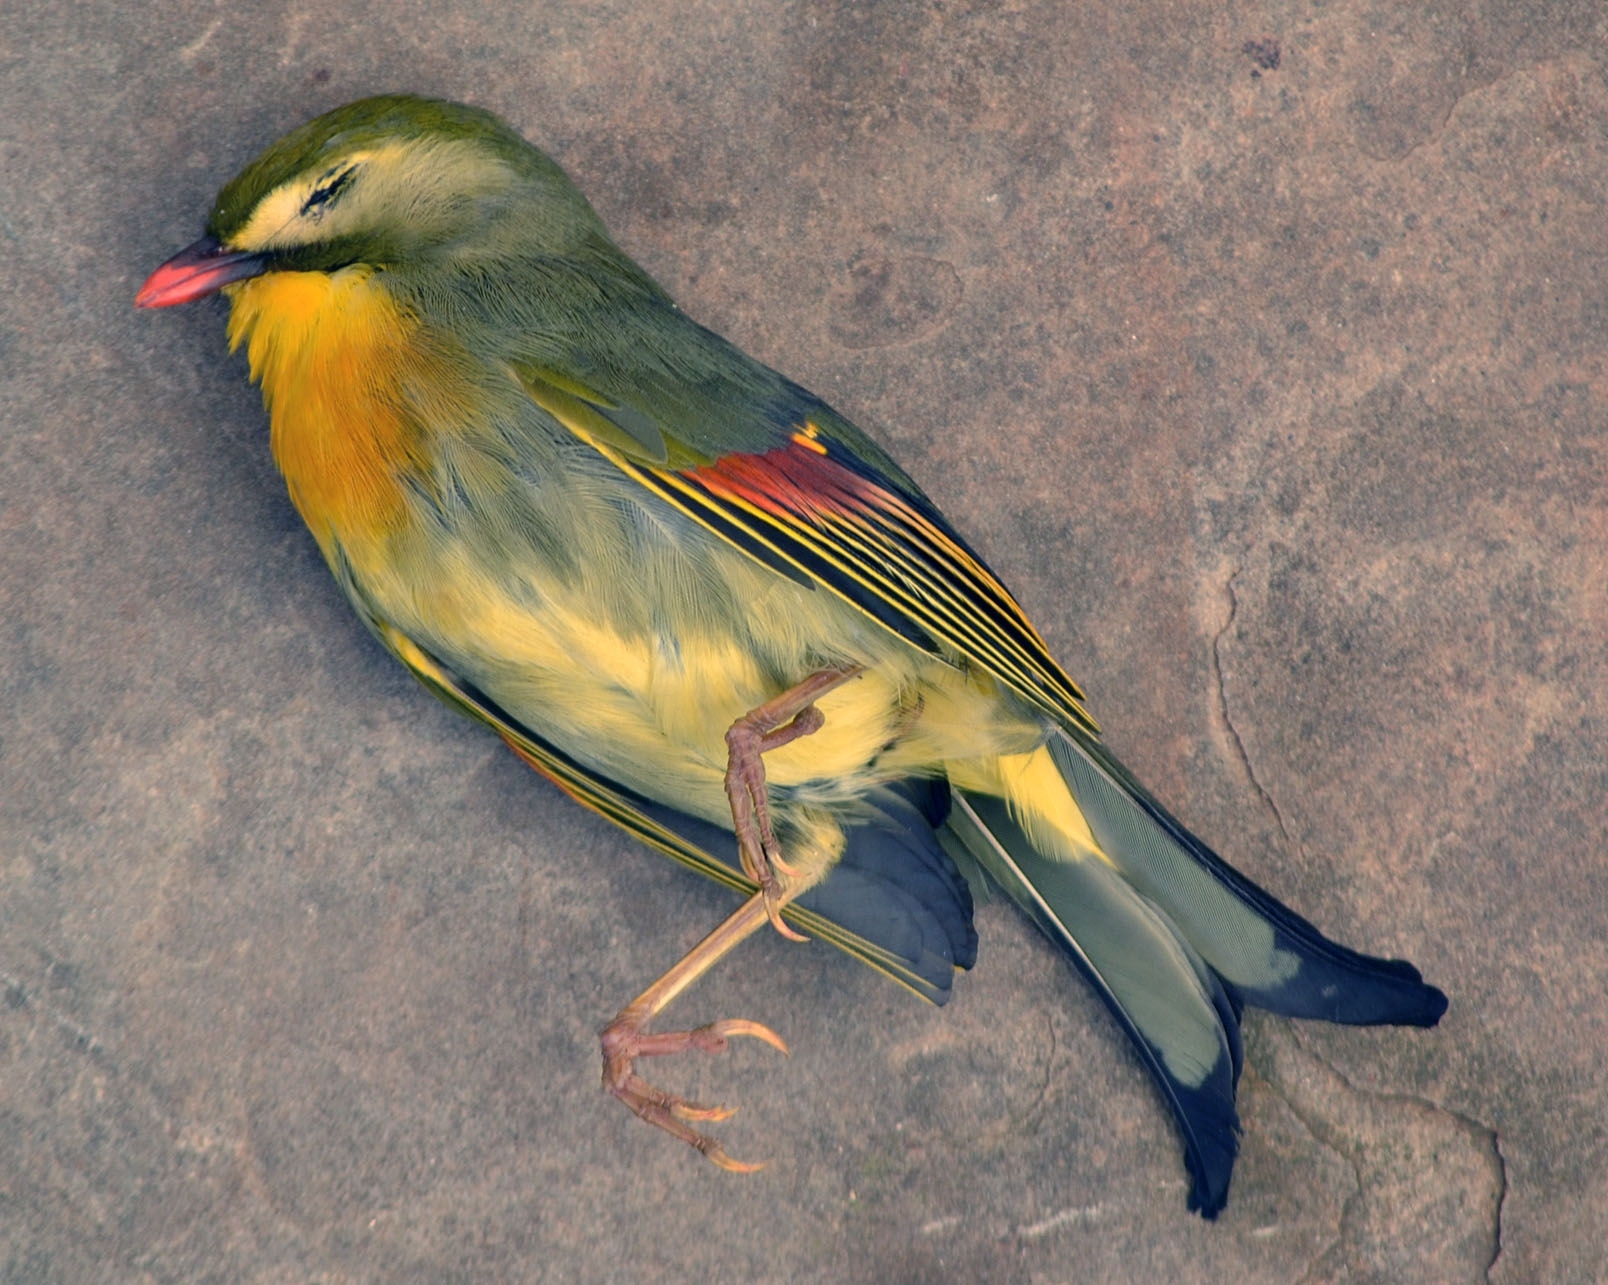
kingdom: Animalia
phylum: Chordata
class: Aves
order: Passeriformes
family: Leiothrichidae
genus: Leiothrix
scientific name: Leiothrix lutea
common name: Red-billed leiothrix
